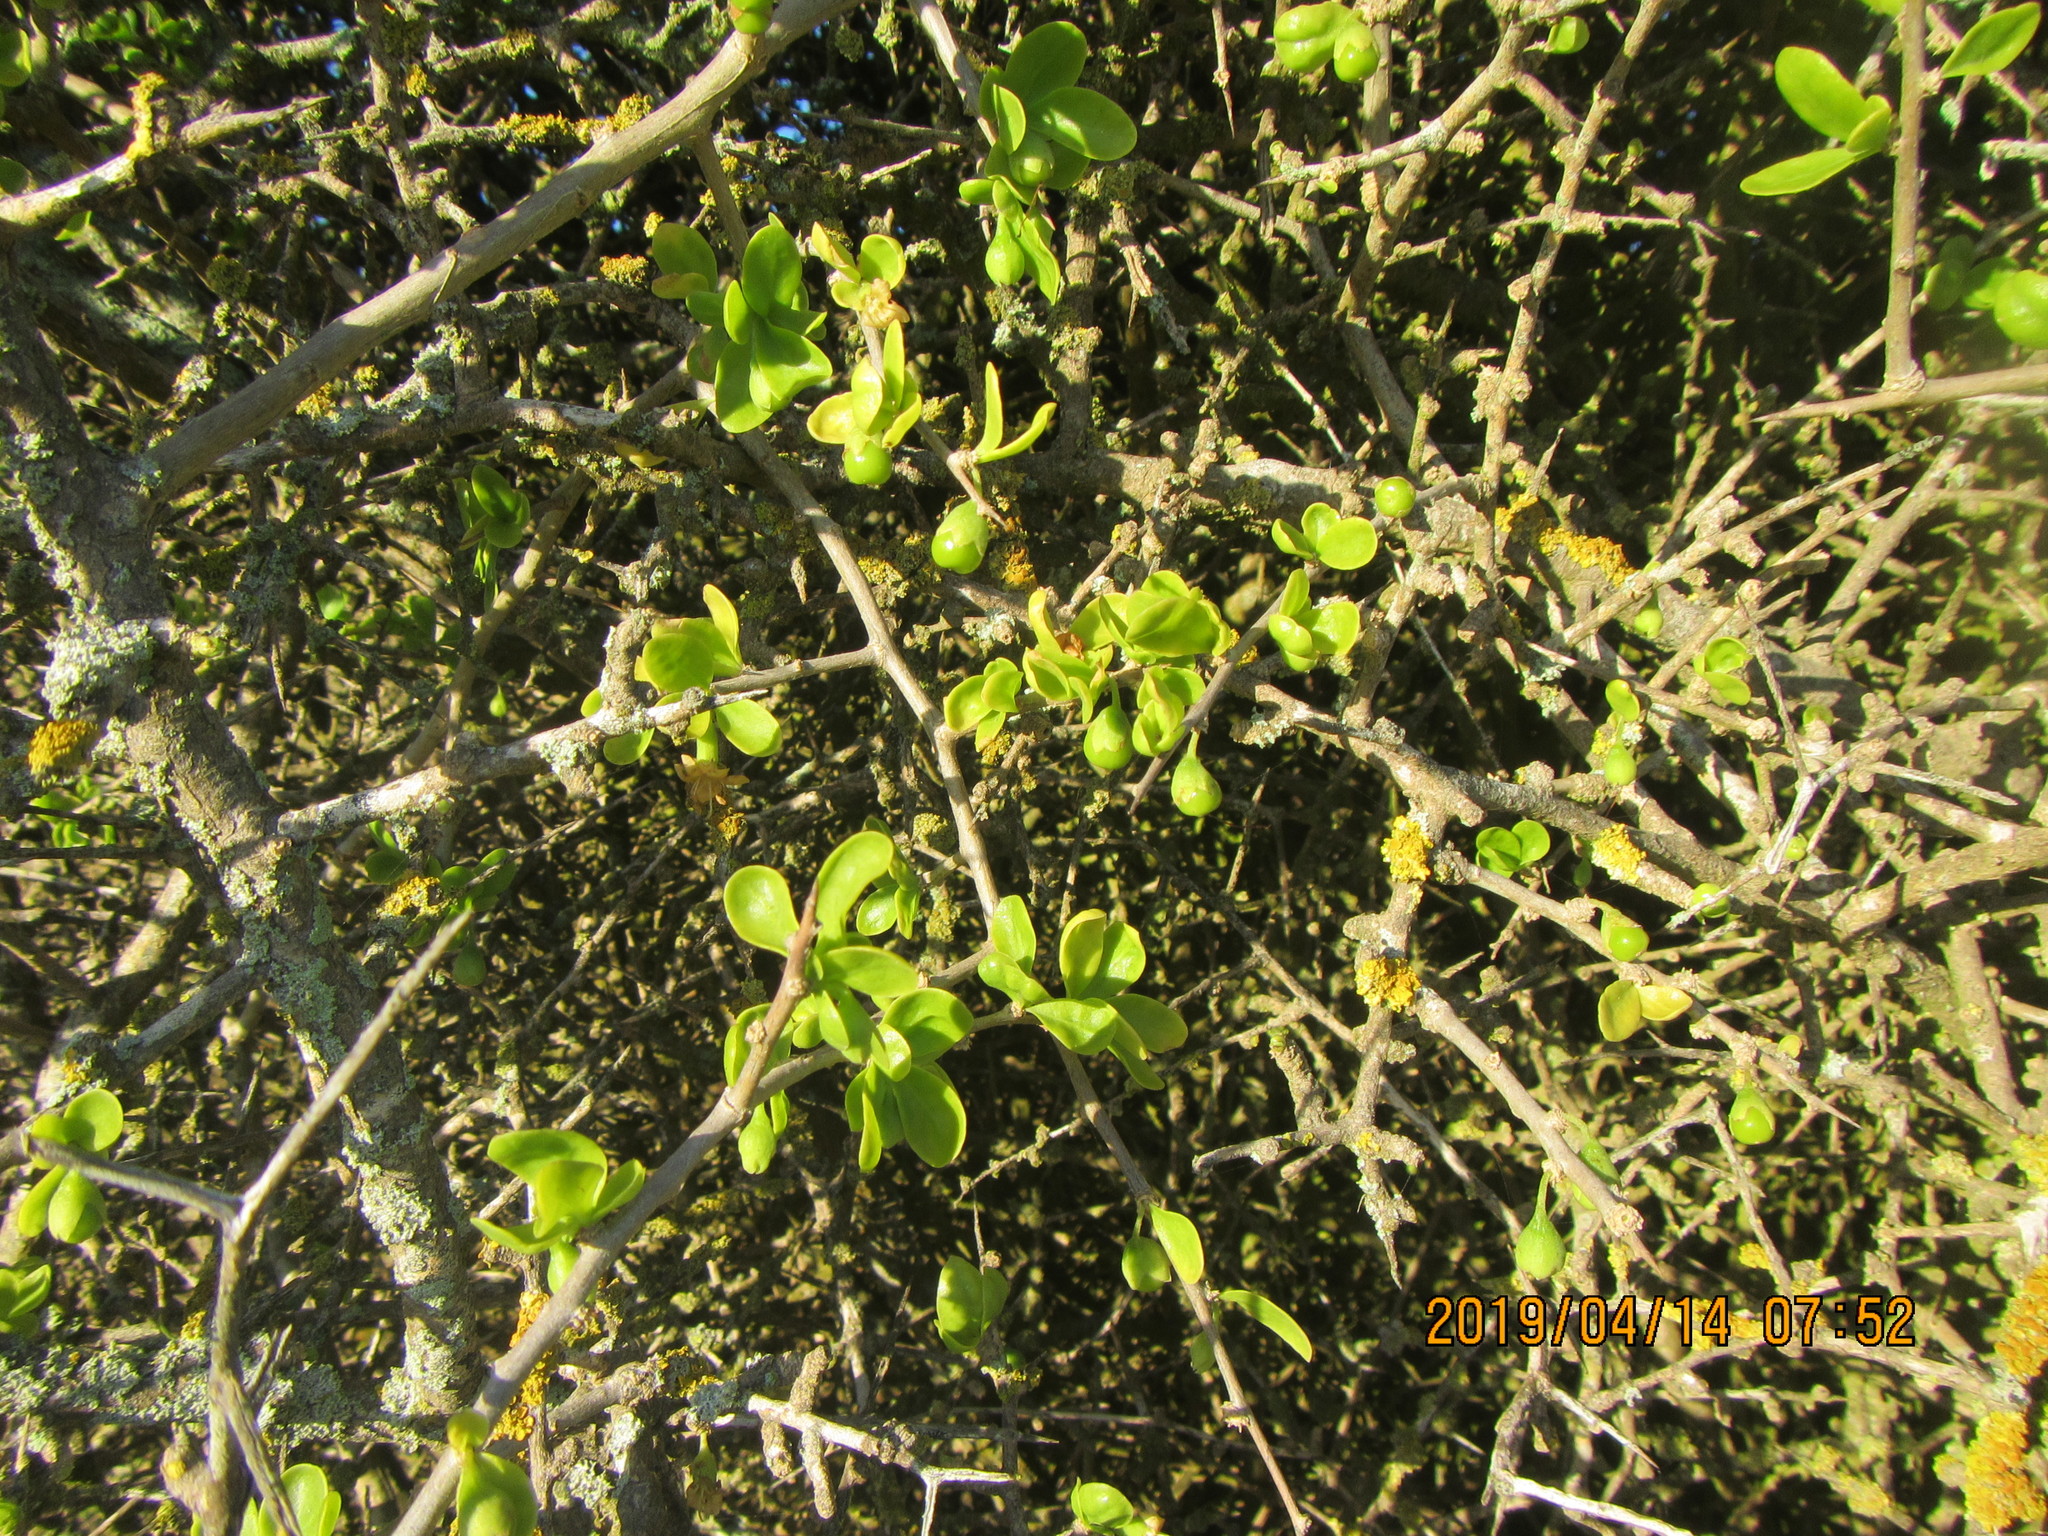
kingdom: Plantae
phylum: Tracheophyta
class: Magnoliopsida
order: Solanales
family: Solanaceae
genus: Lycium
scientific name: Lycium ferocissimum
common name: African boxthorn
